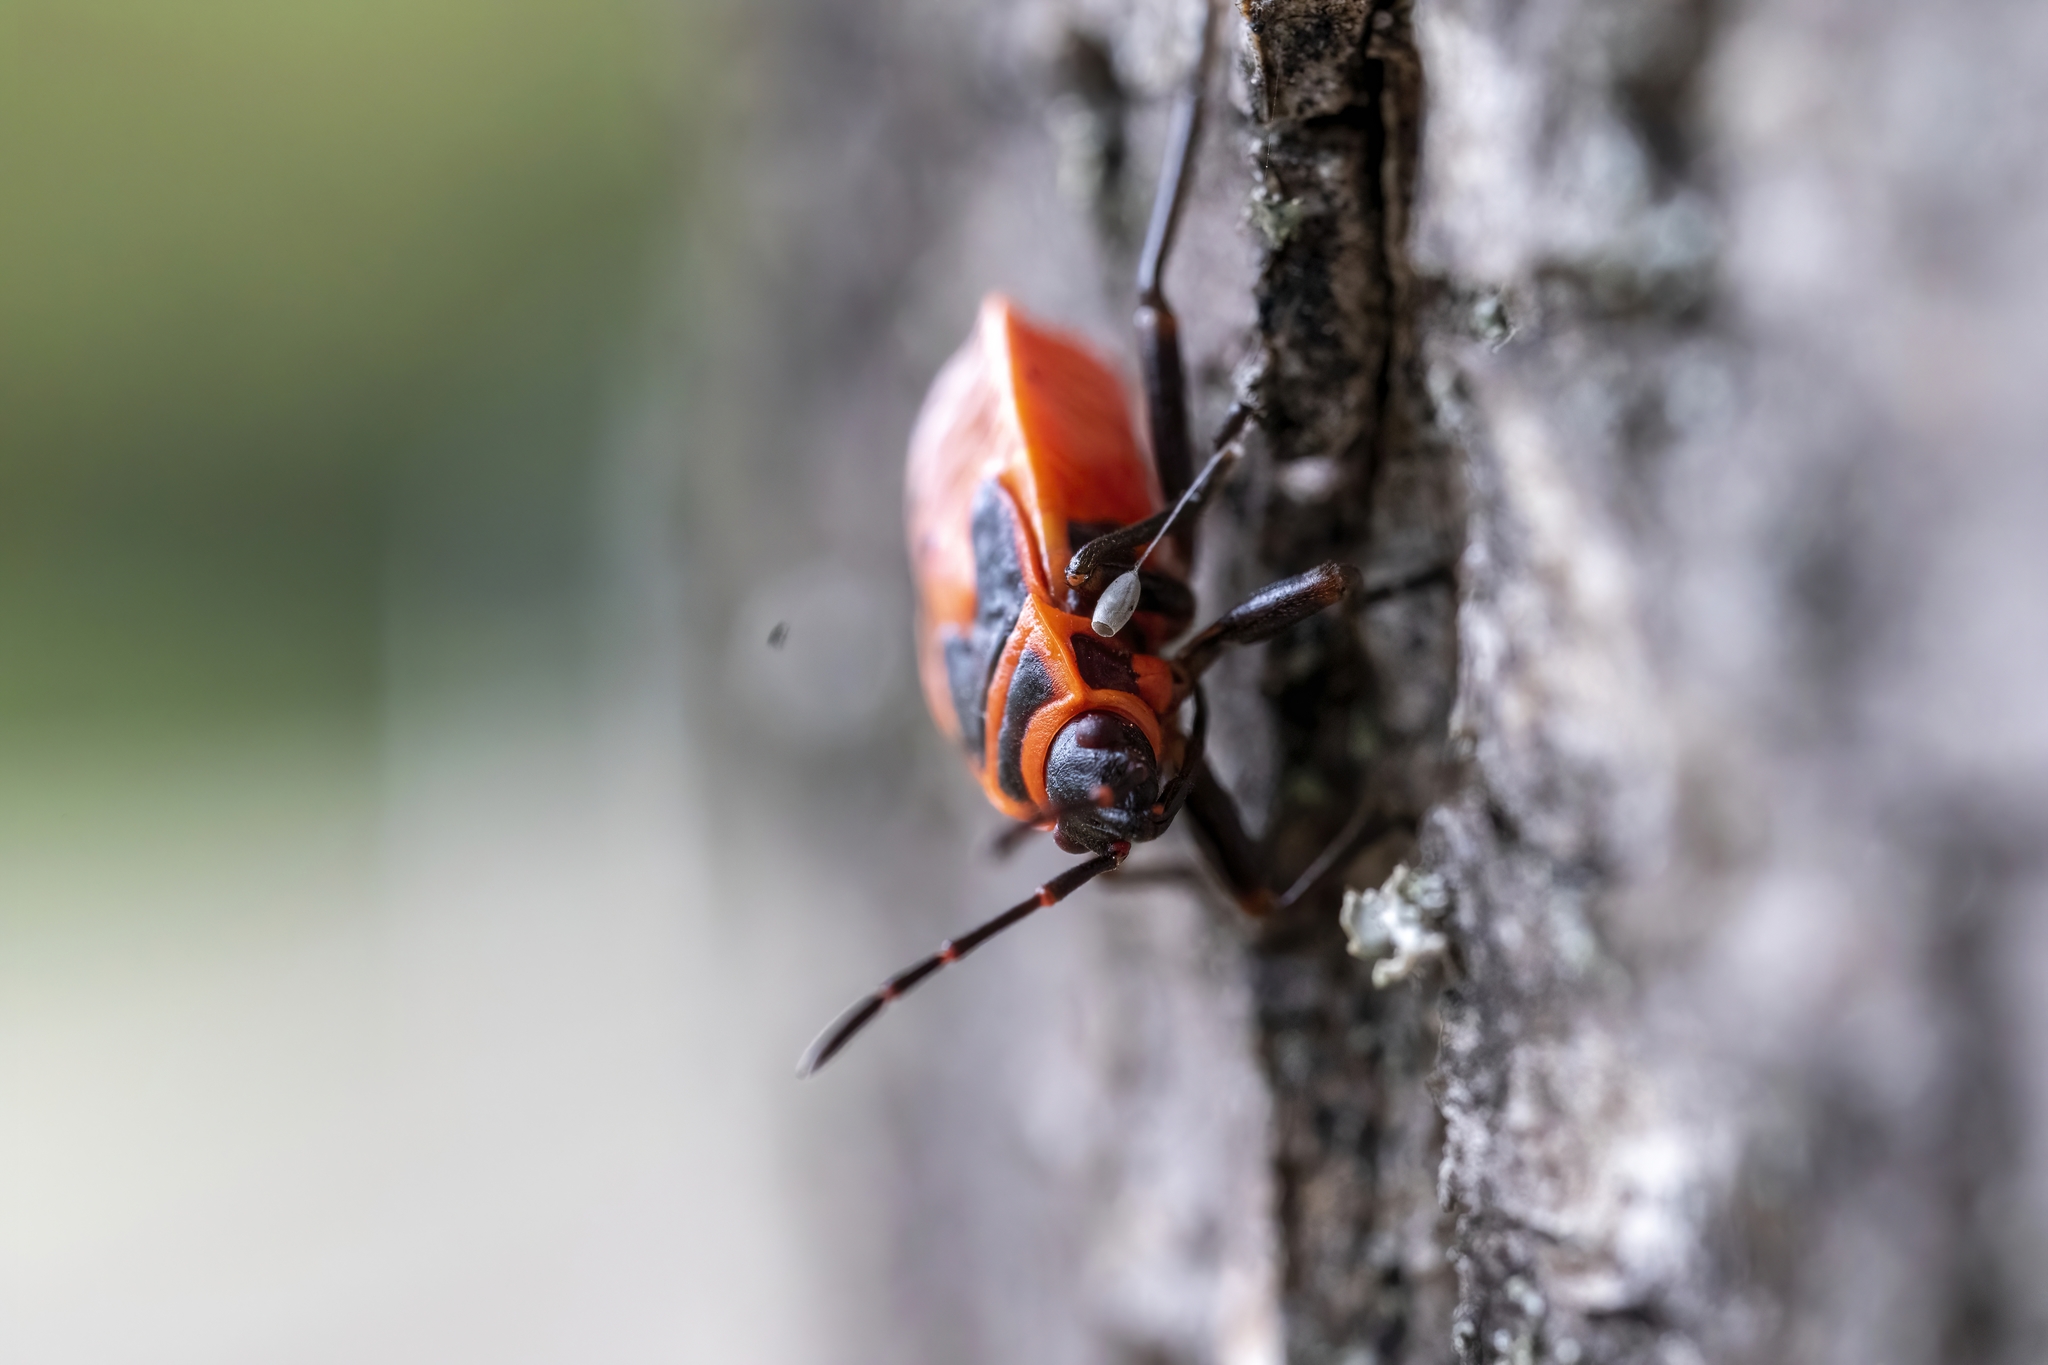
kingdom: Animalia
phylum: Arthropoda
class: Insecta
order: Hemiptera
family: Pyrrhocoridae
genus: Pyrrhocoris
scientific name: Pyrrhocoris apterus
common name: Firebug
